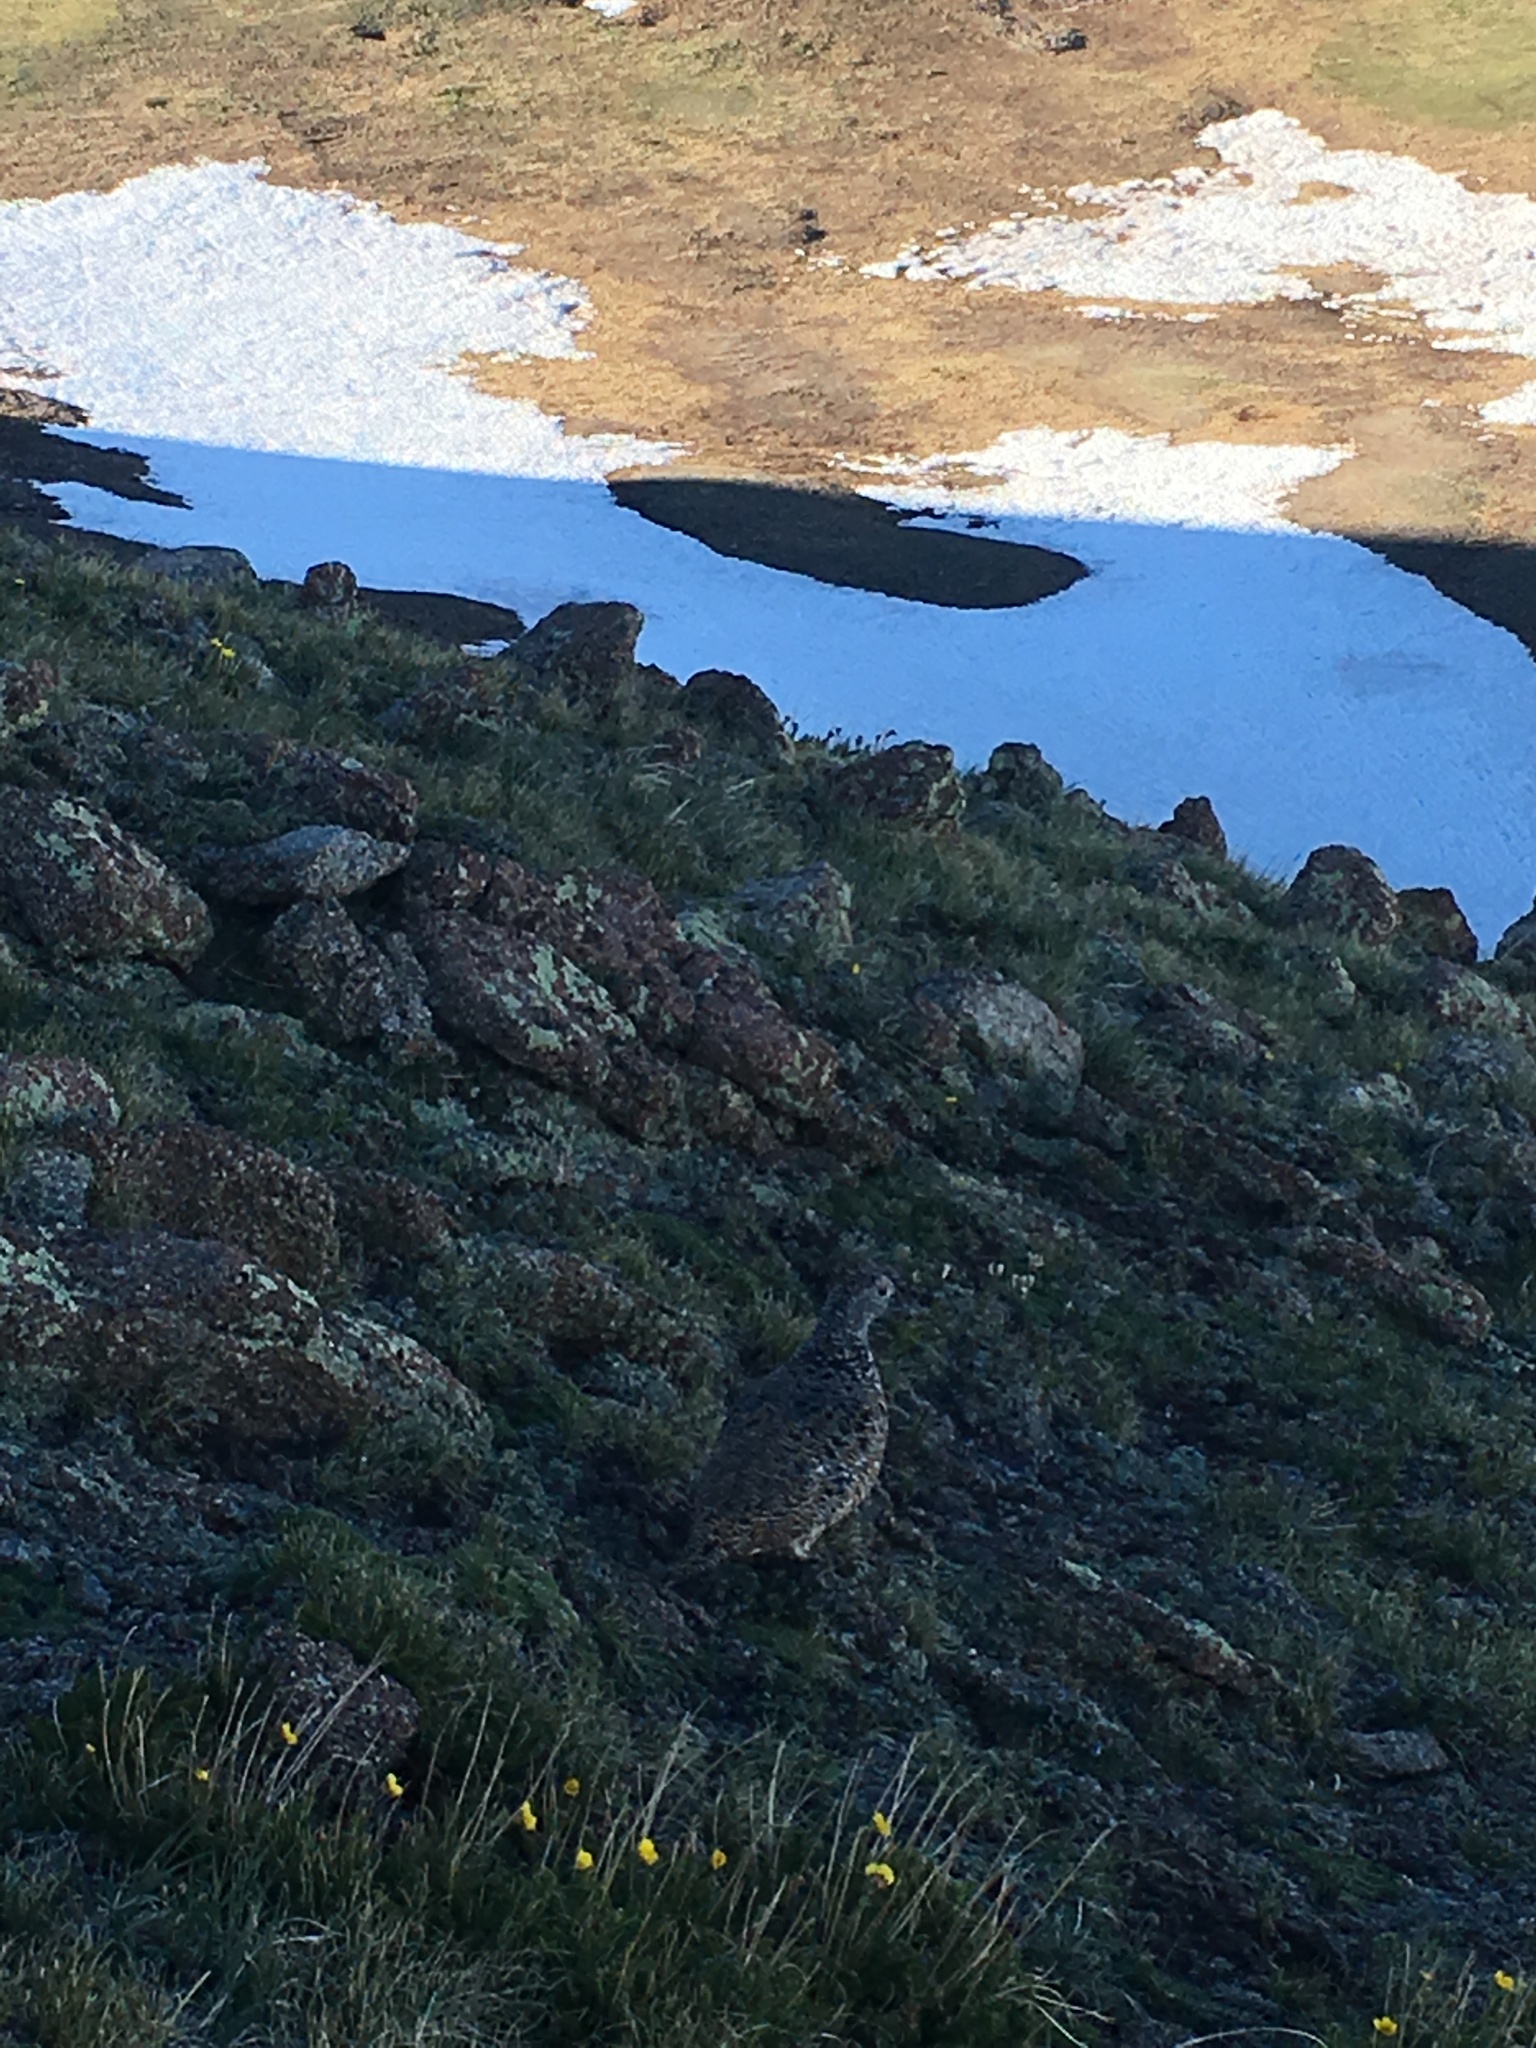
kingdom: Animalia
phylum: Chordata
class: Aves
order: Galliformes
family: Phasianidae
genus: Lagopus
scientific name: Lagopus leucura
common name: White-tailed ptarmigan
